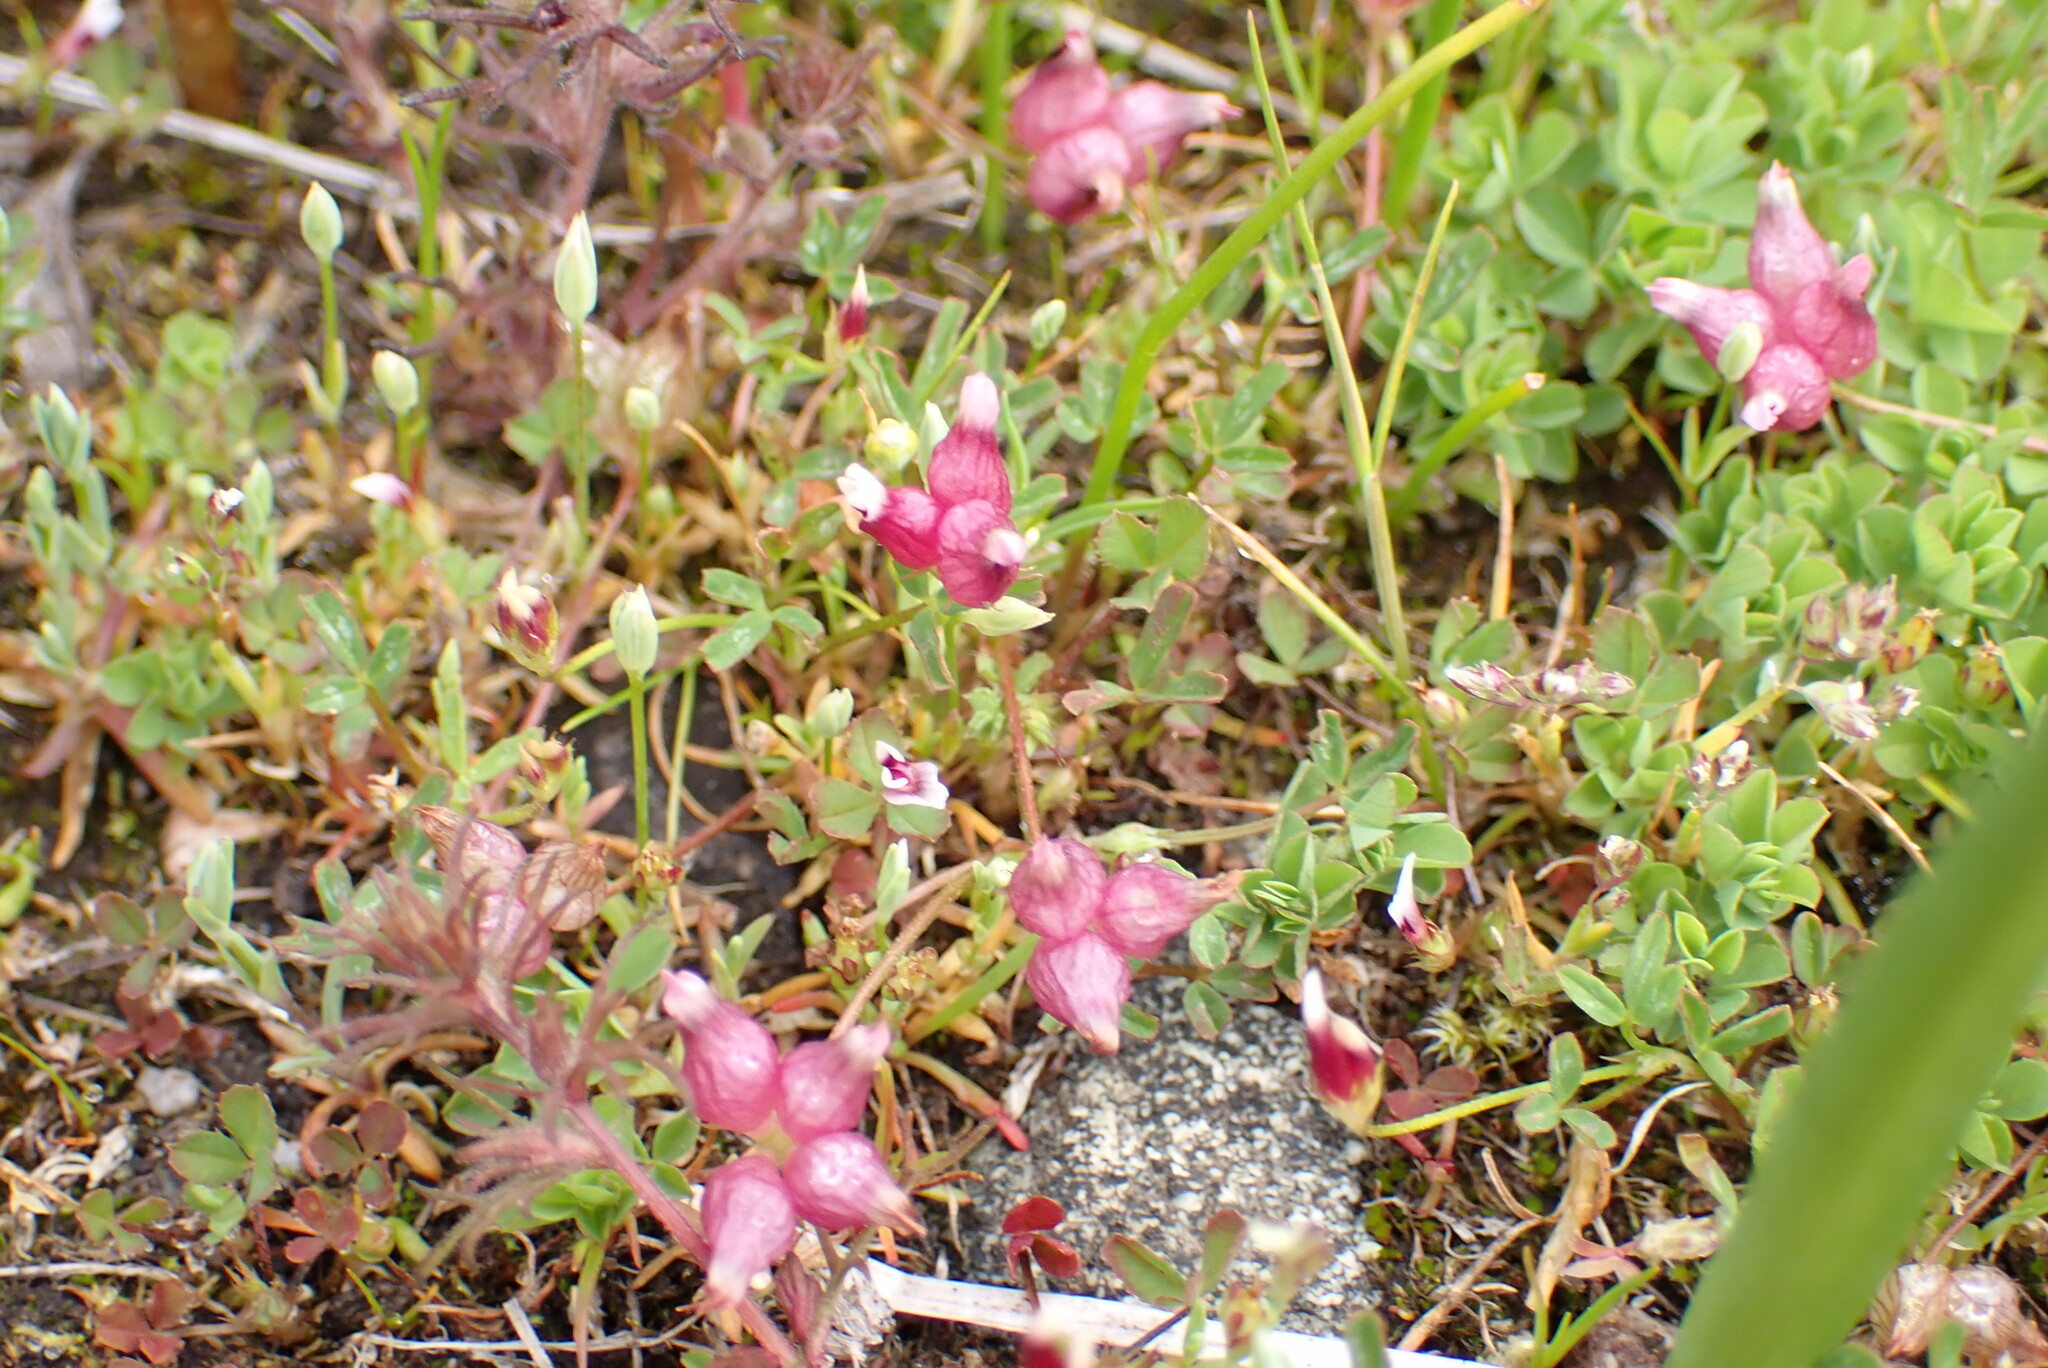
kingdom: Plantae
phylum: Tracheophyta
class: Magnoliopsida
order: Fabales
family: Fabaceae
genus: Trifolium
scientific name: Trifolium depauperatum
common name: Poverty clover
